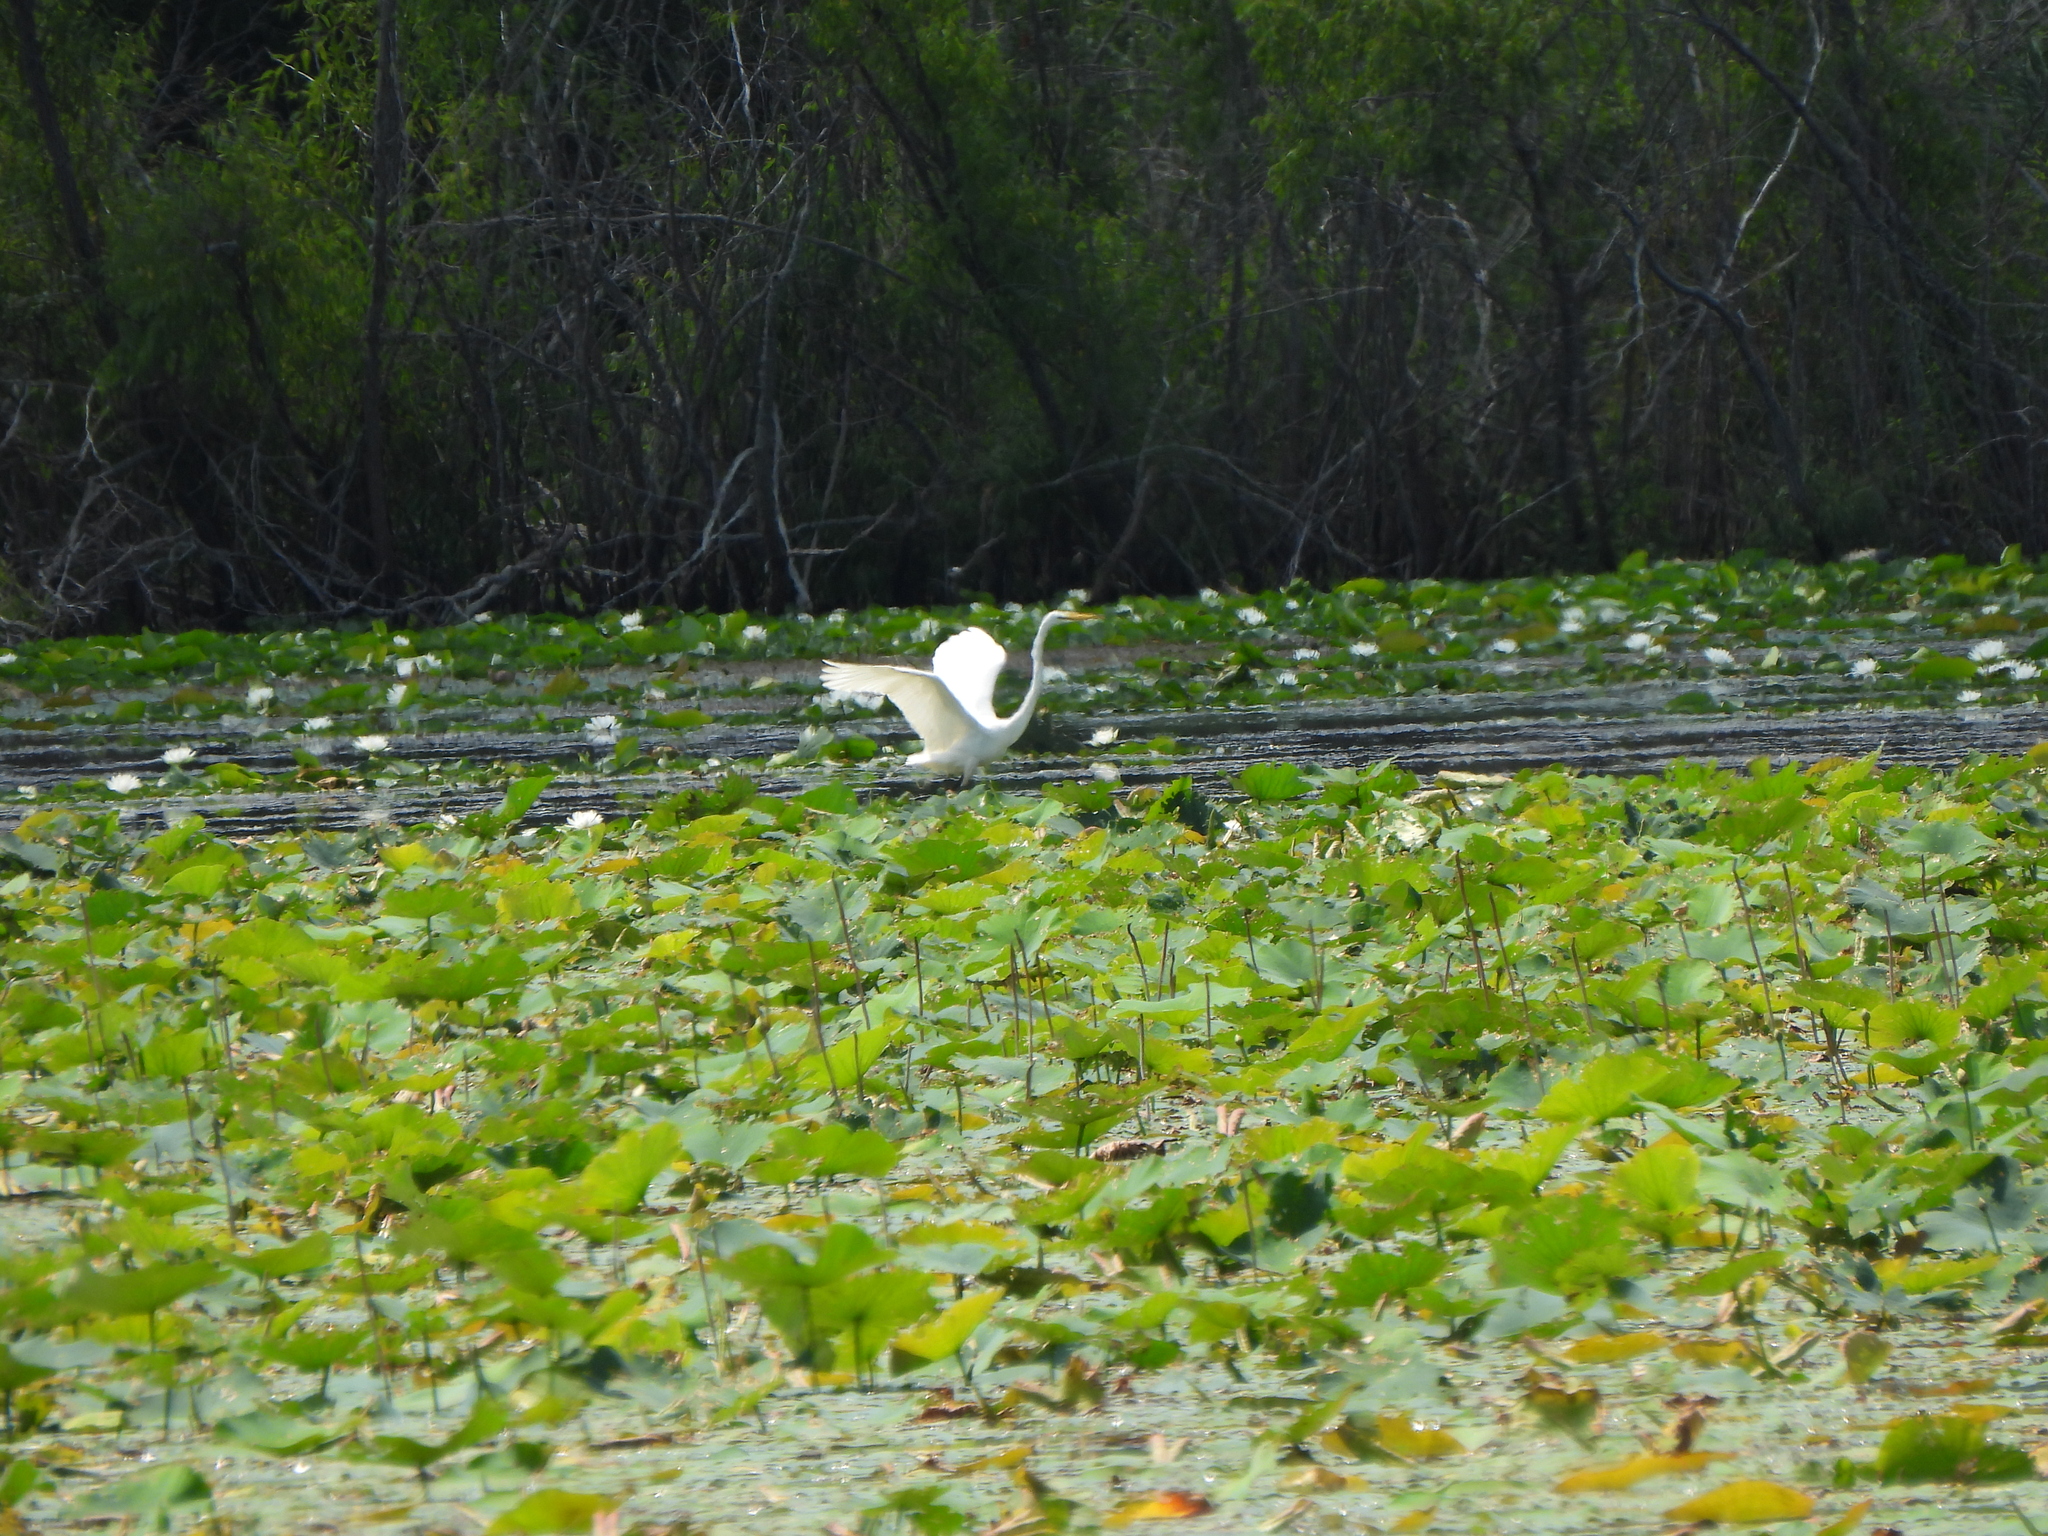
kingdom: Animalia
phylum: Chordata
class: Aves
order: Pelecaniformes
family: Ardeidae
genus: Ardea
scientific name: Ardea alba
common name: Great egret
